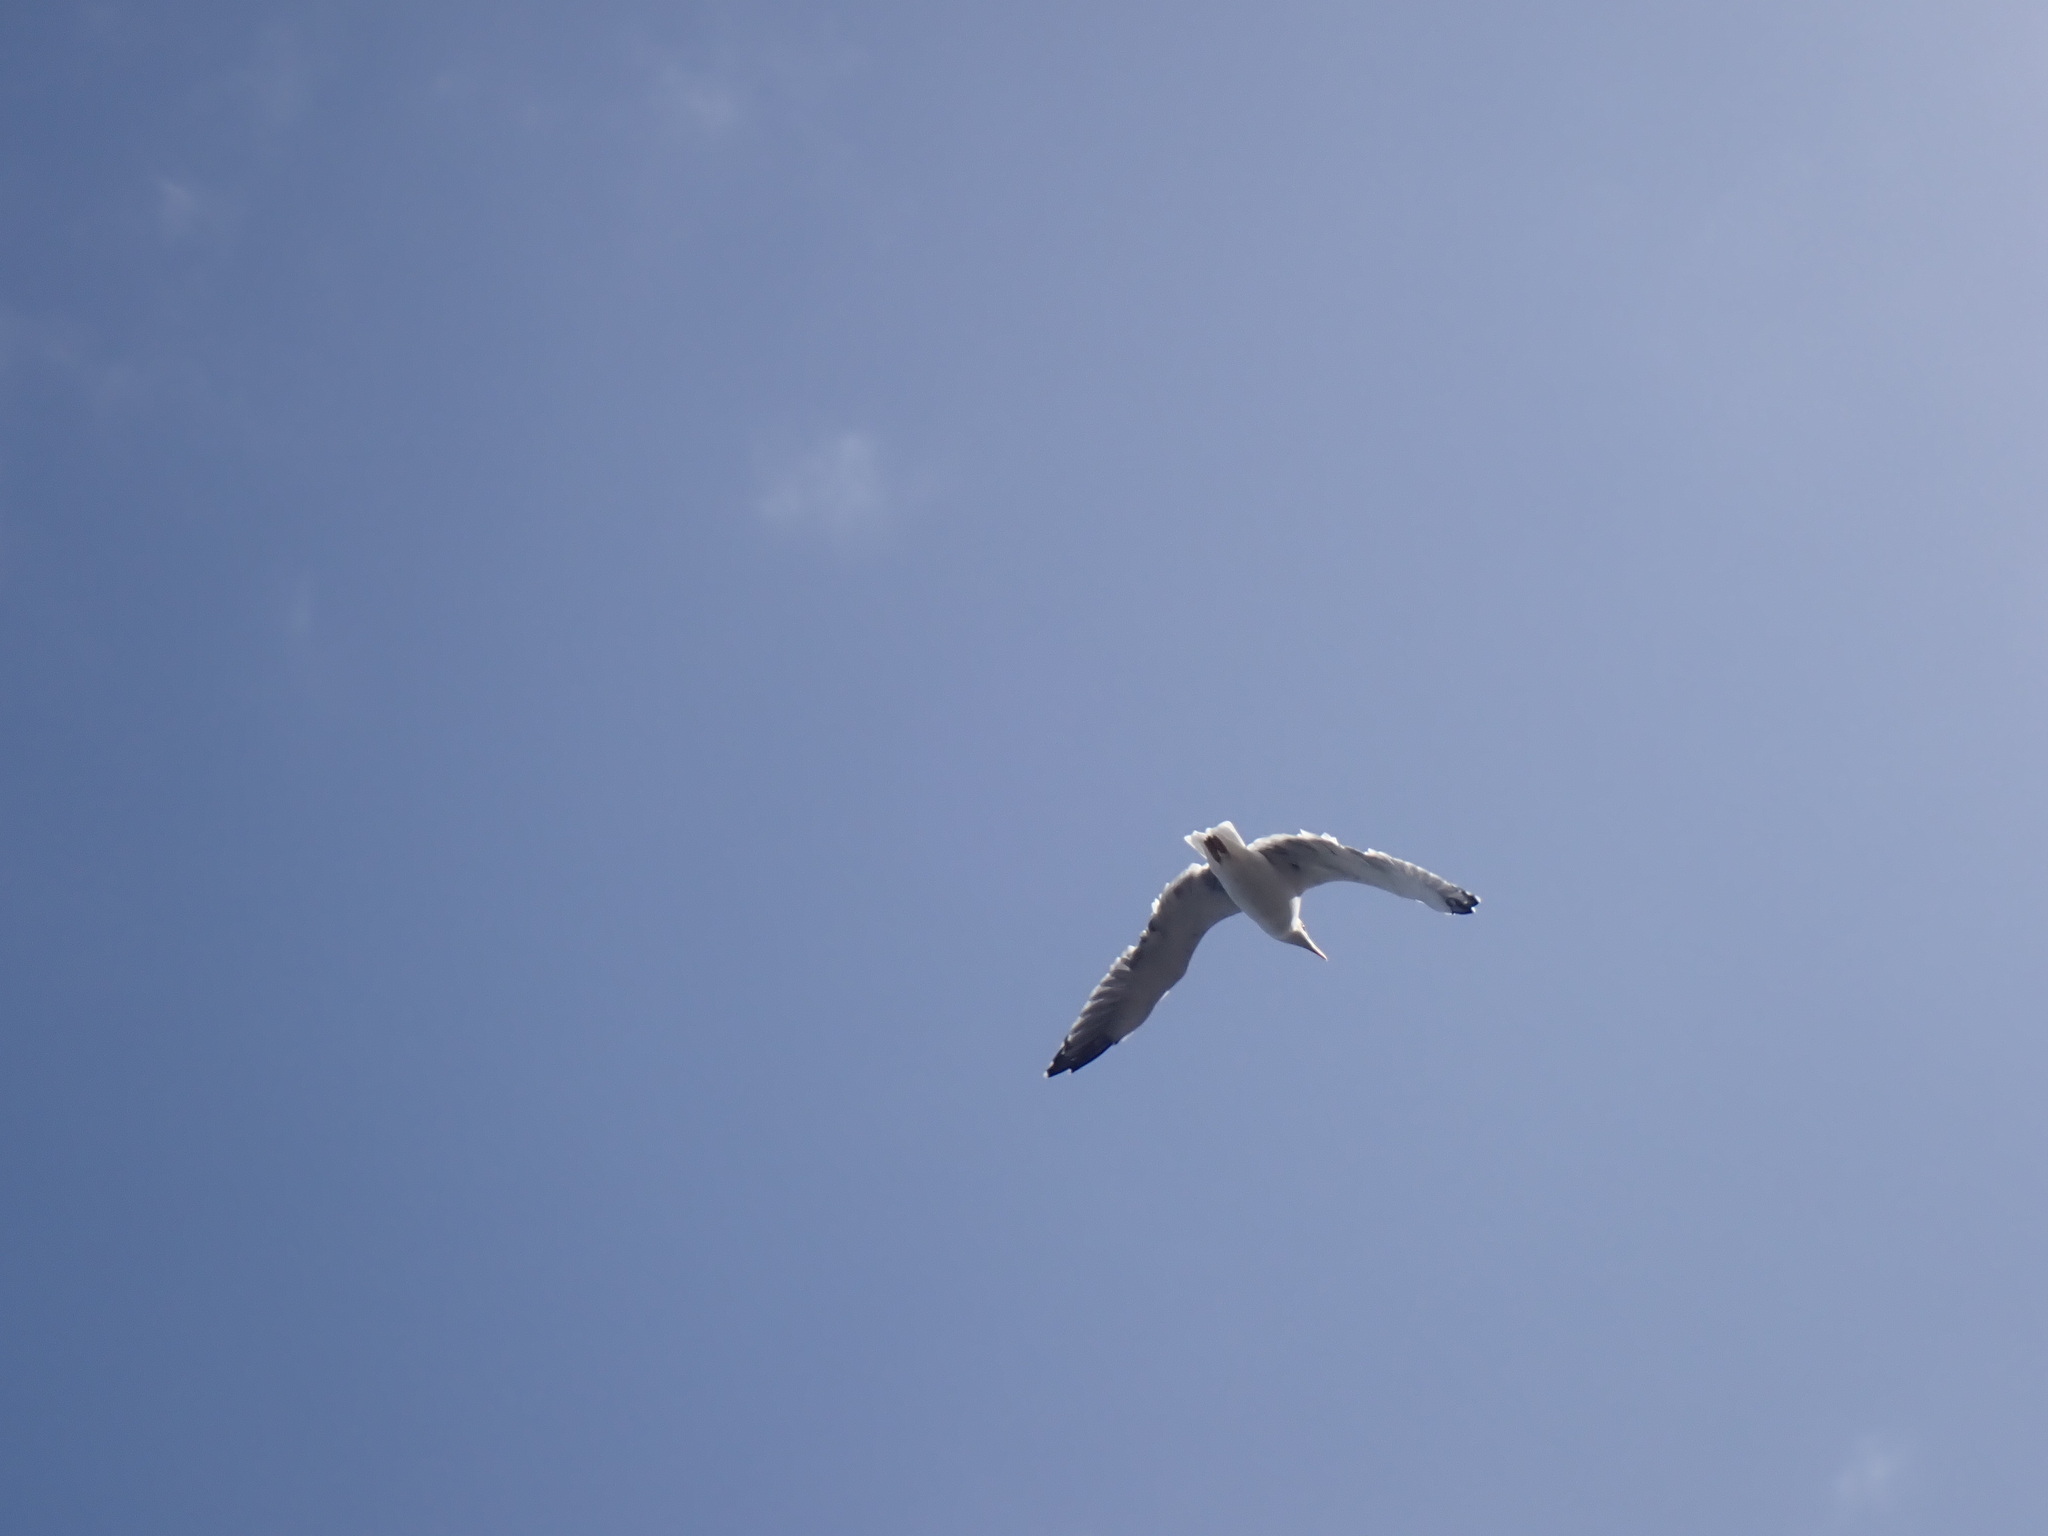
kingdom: Animalia
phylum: Chordata
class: Aves
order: Charadriiformes
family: Laridae
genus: Larus
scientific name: Larus michahellis
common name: Yellow-legged gull
